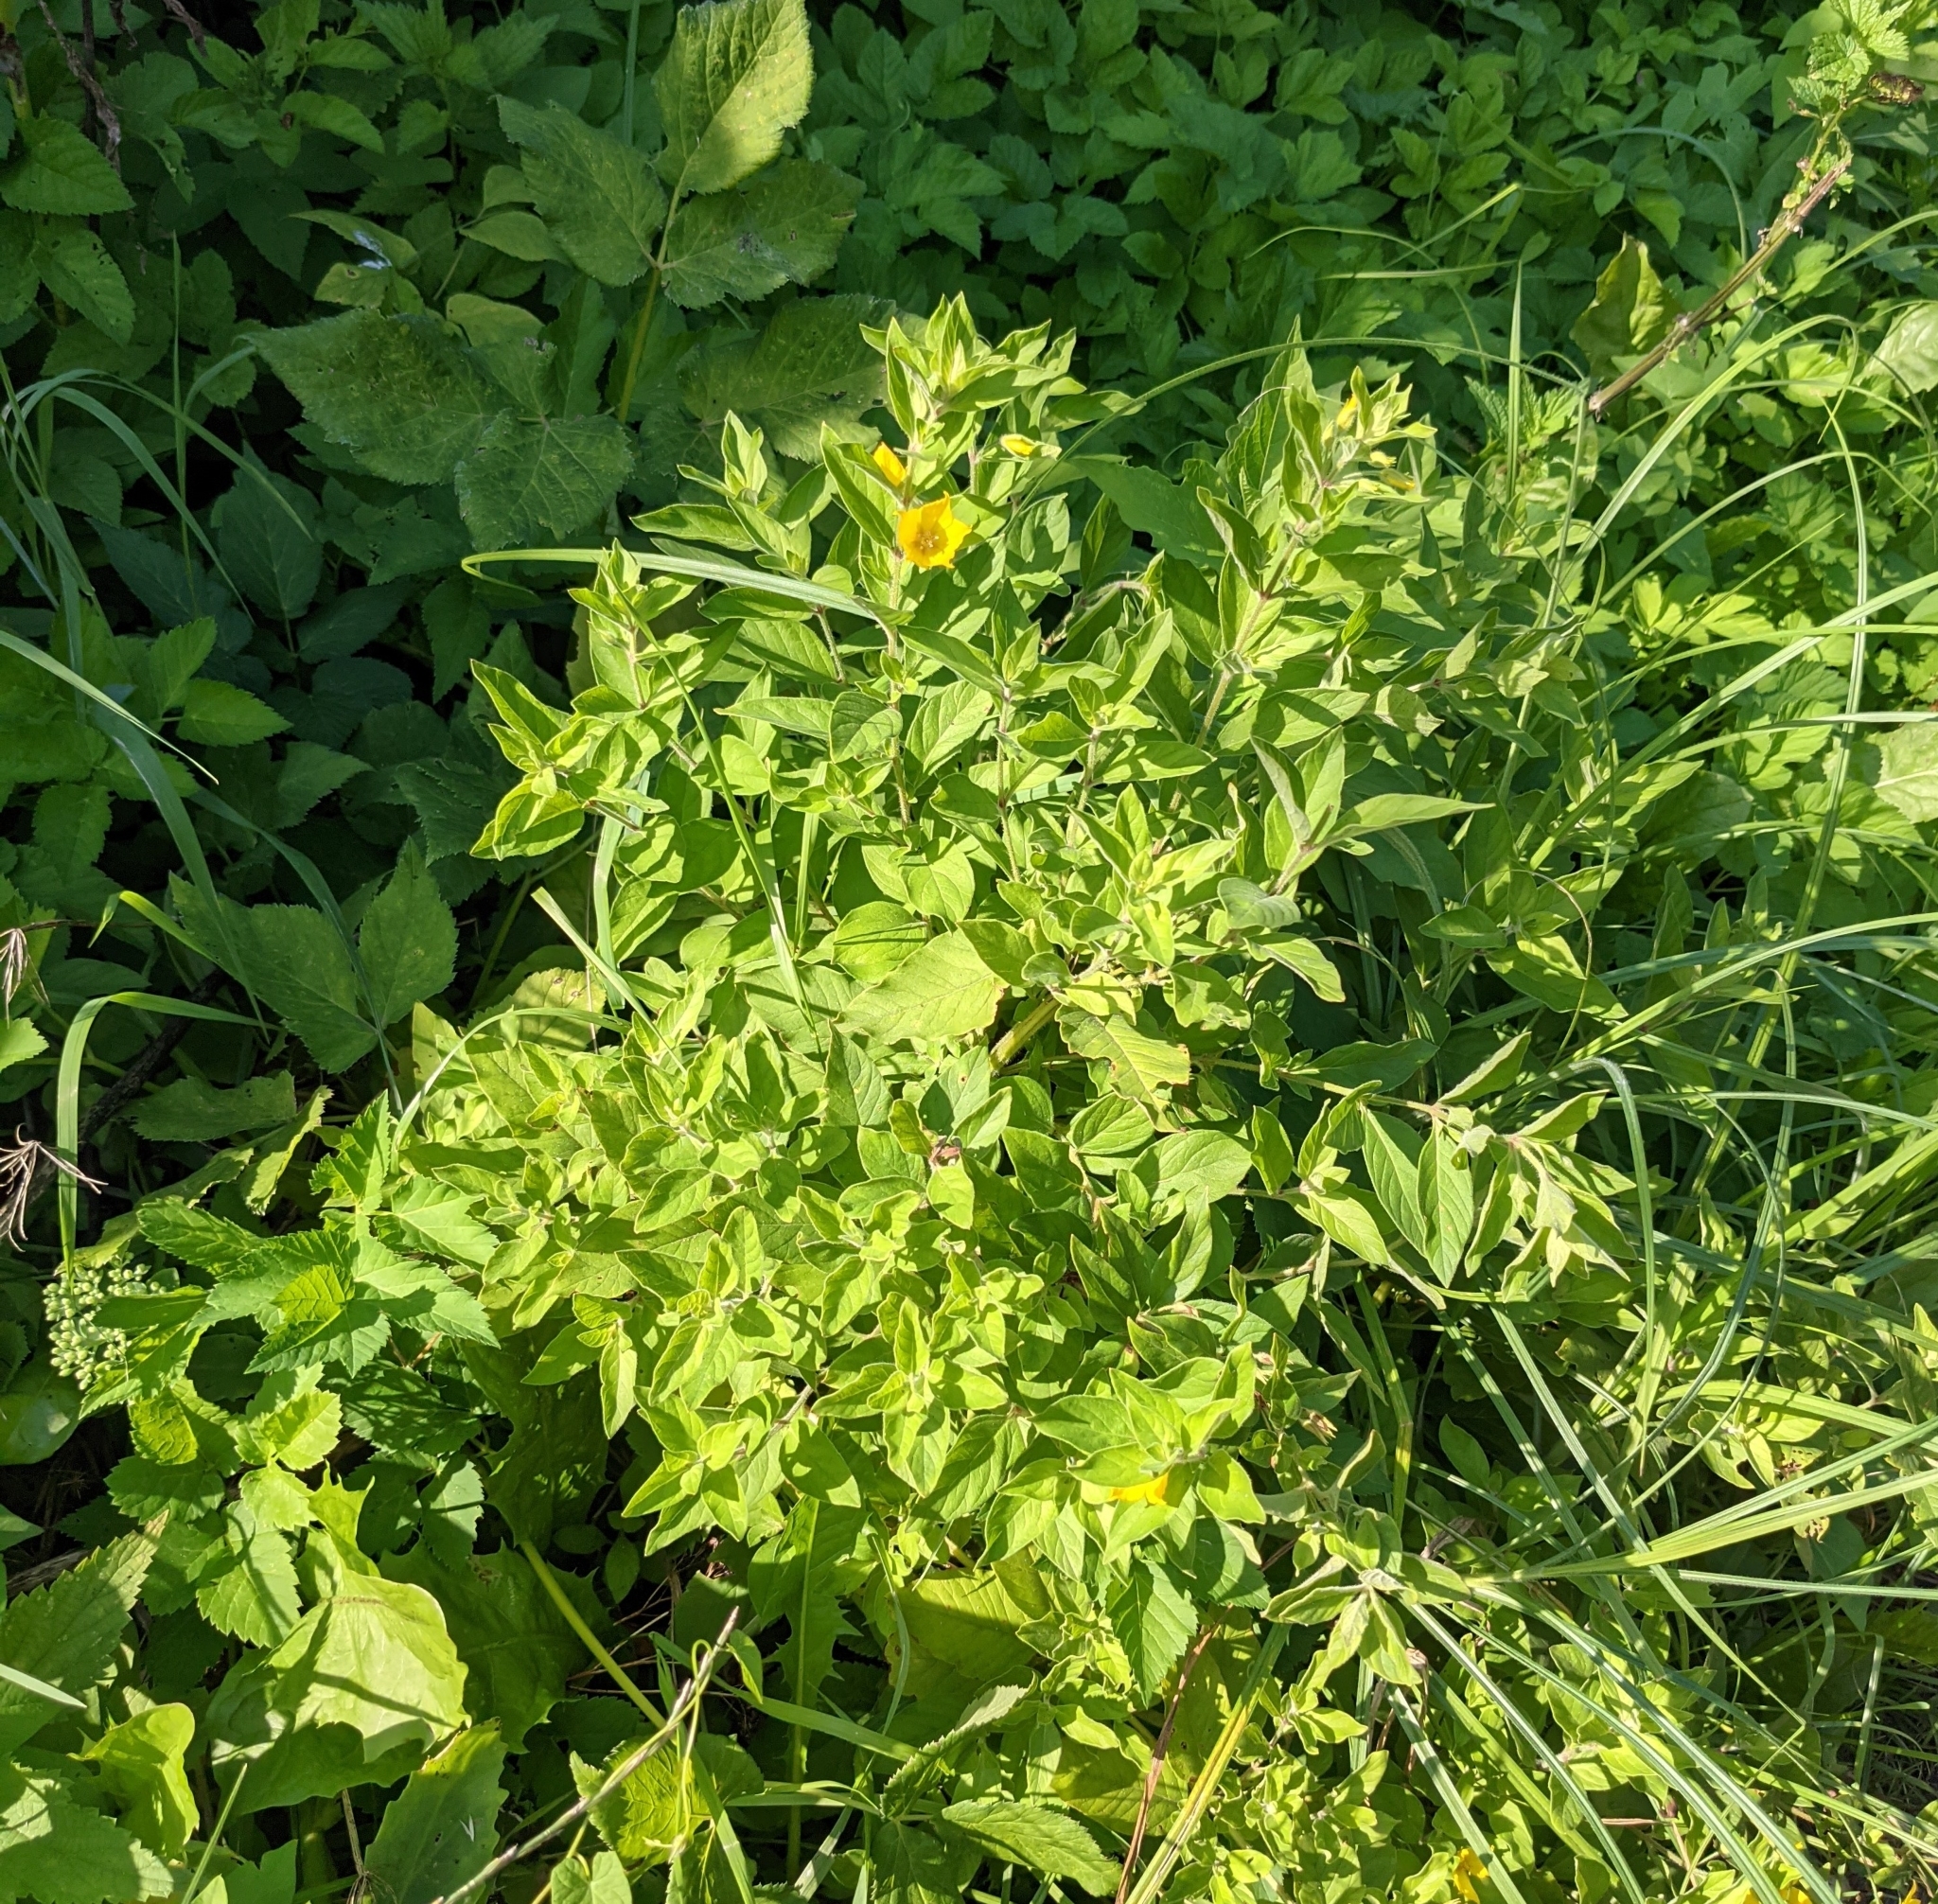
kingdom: Plantae
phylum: Tracheophyta
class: Magnoliopsida
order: Ericales
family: Primulaceae
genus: Lysimachia
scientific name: Lysimachia punctata
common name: Dotted loosestrife
